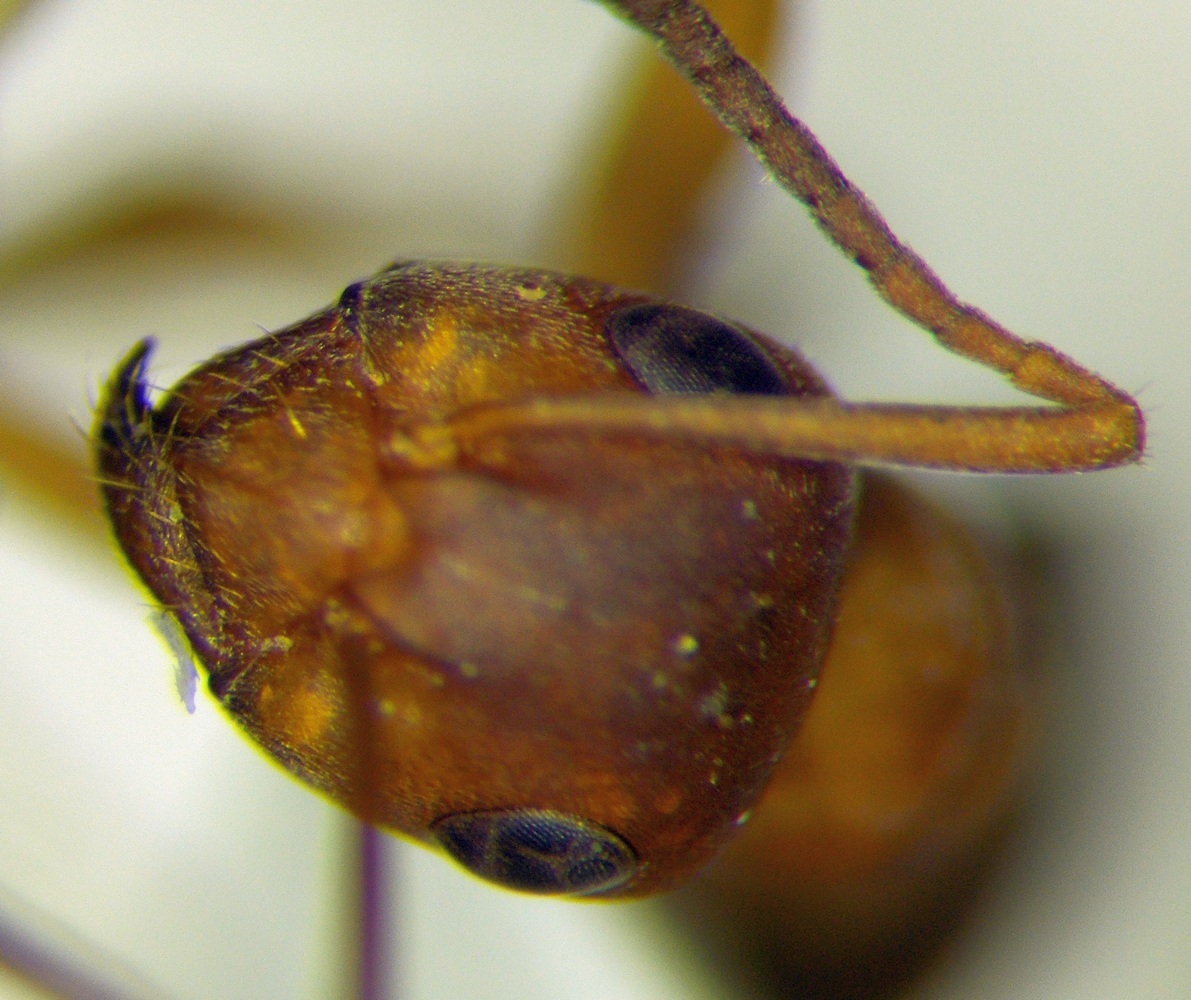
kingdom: Animalia
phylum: Arthropoda
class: Insecta
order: Hymenoptera
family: Formicidae
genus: Formica
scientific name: Formica clara
